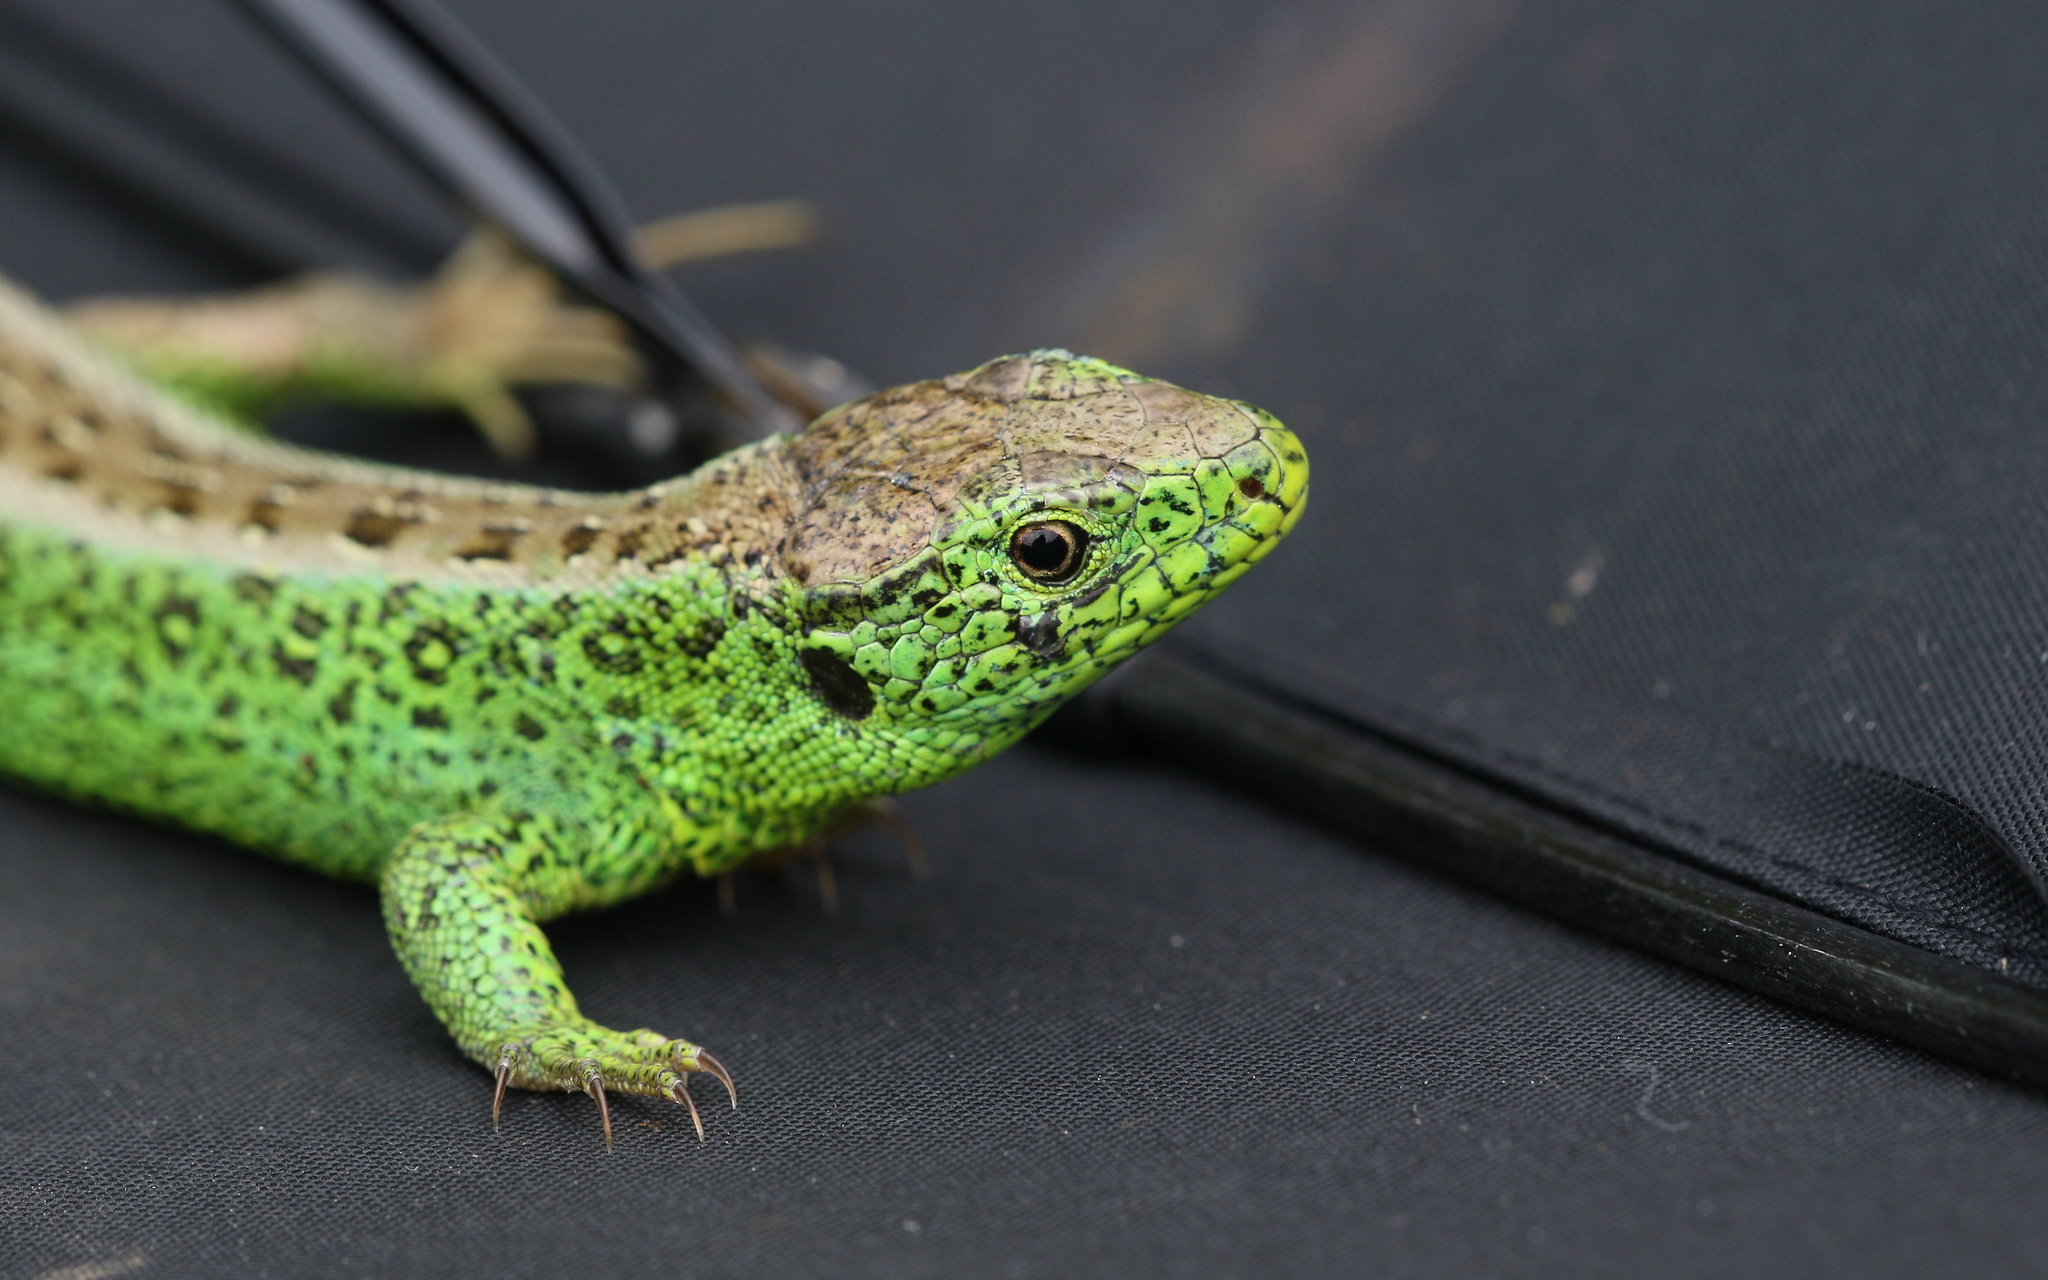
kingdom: Animalia
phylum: Chordata
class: Squamata
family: Lacertidae
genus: Lacerta
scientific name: Lacerta agilis
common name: Sand lizard
